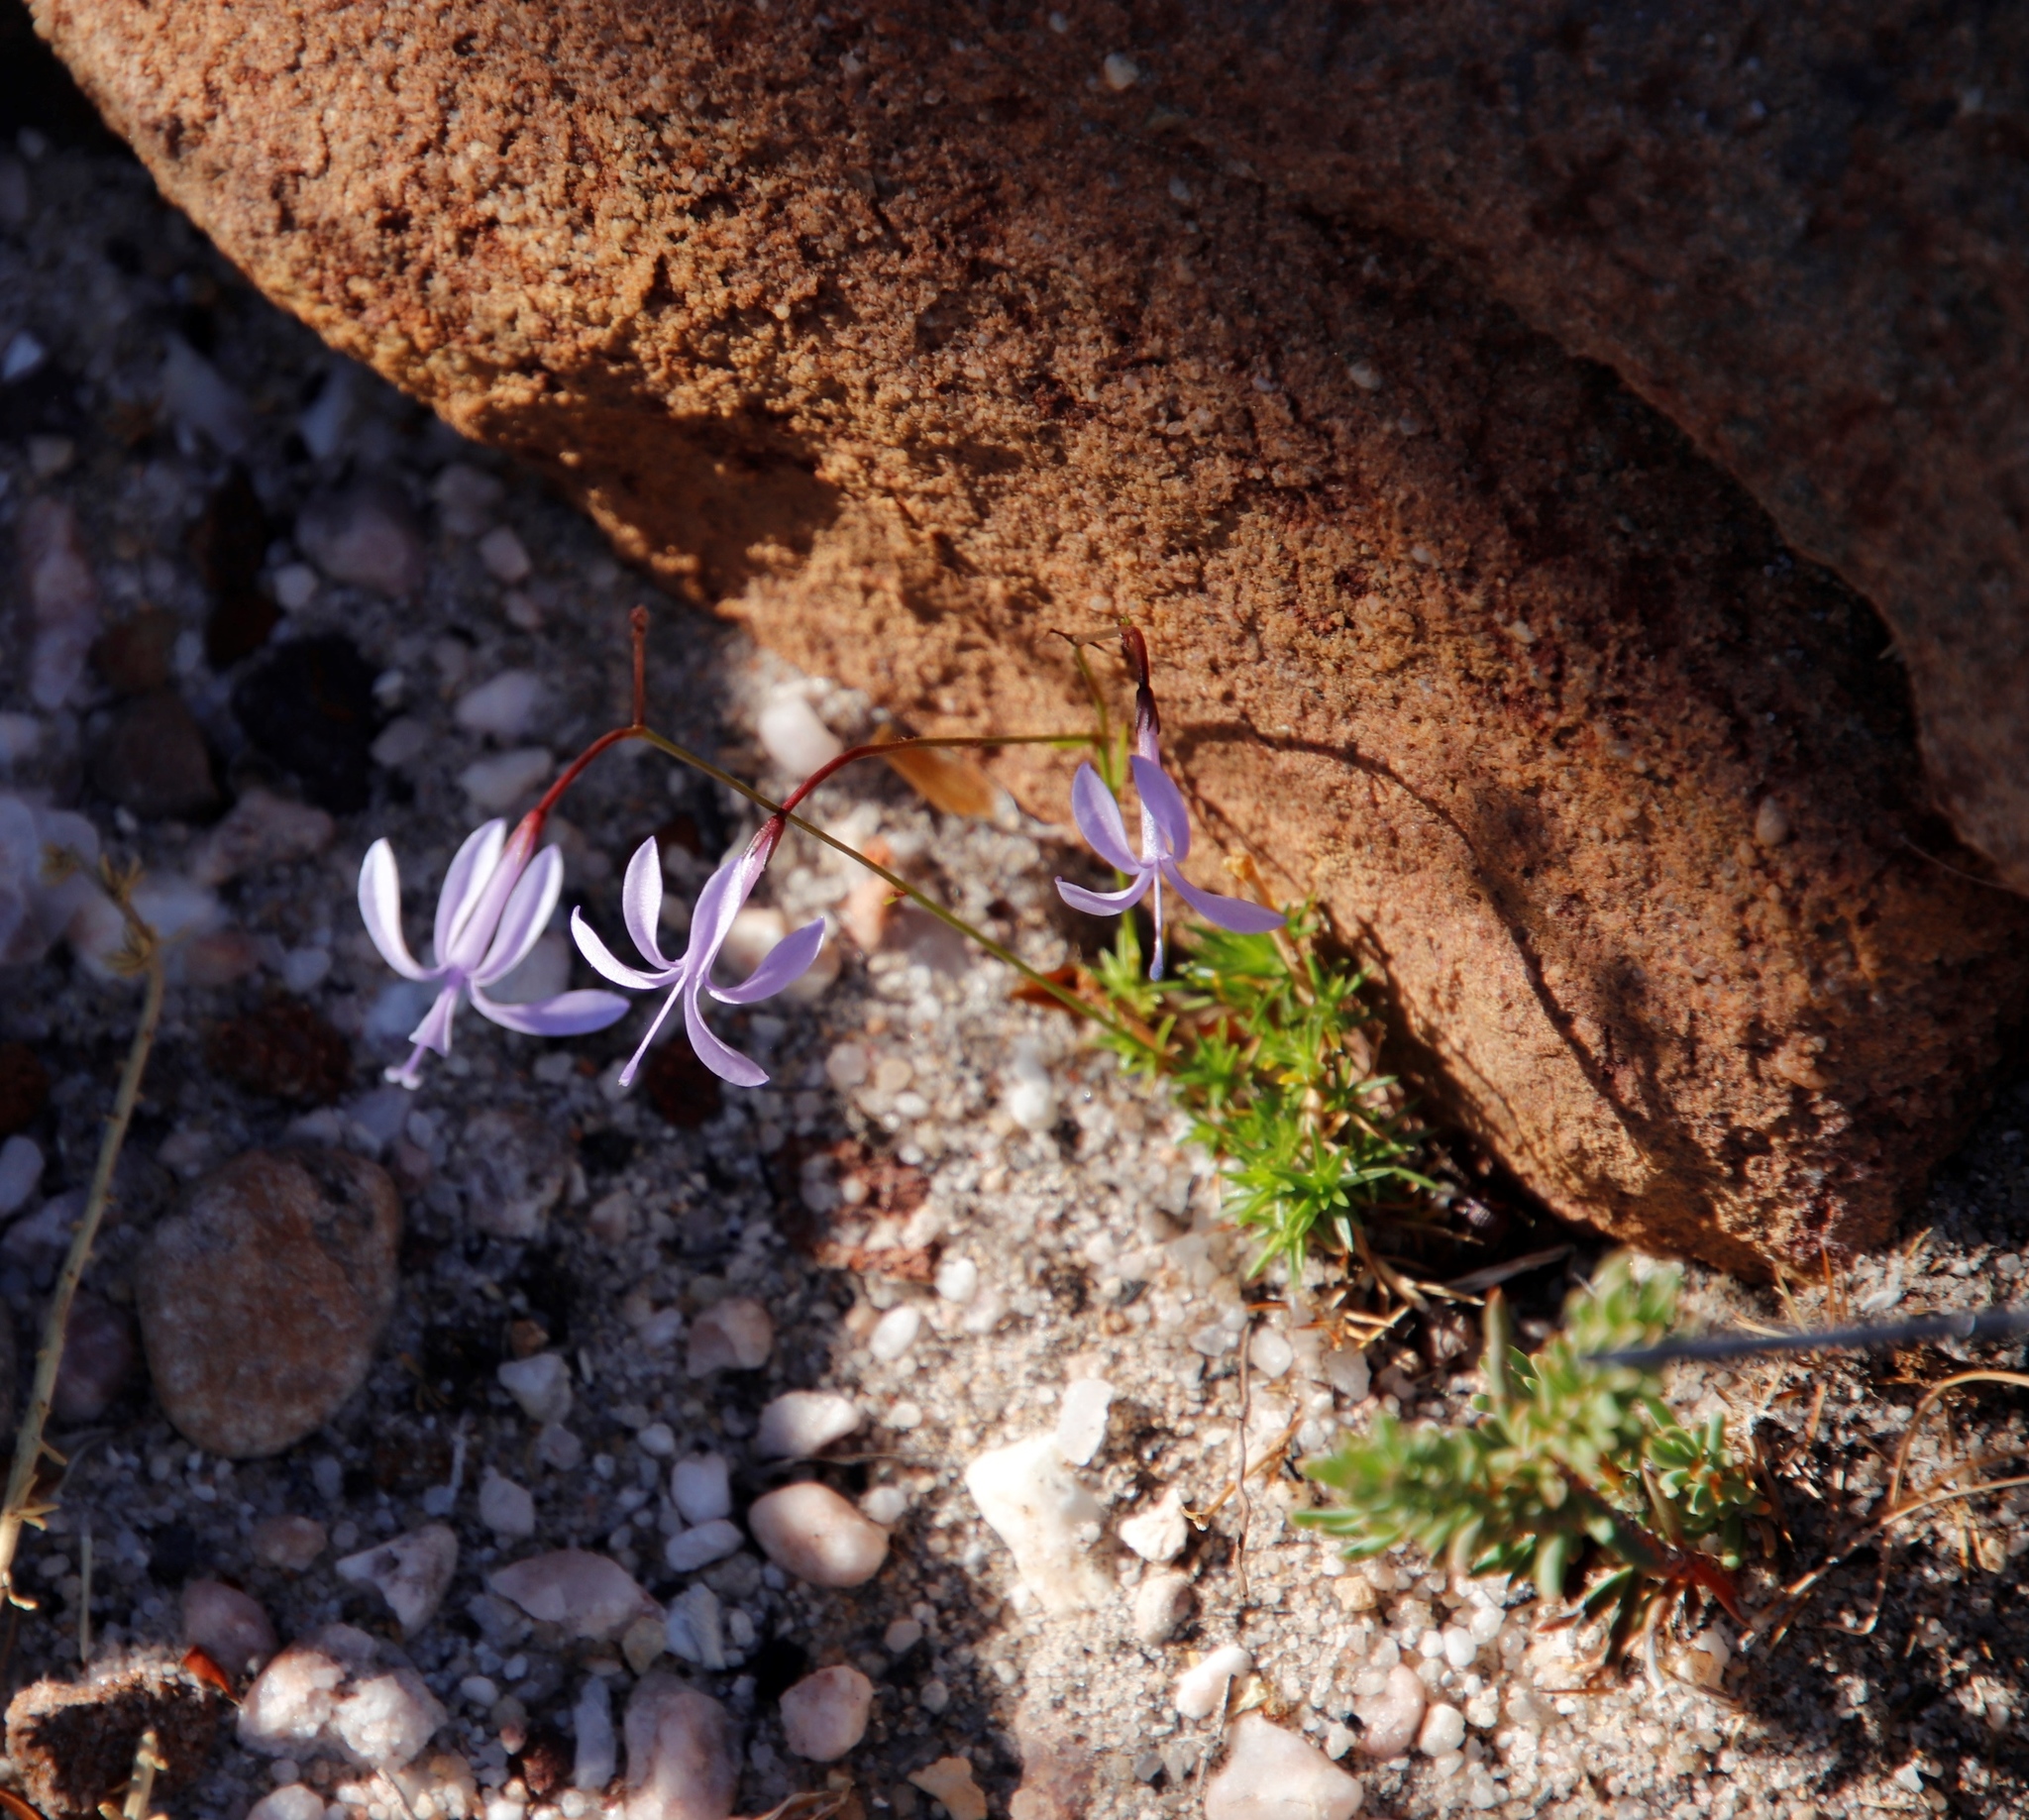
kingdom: Plantae
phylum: Tracheophyta
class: Magnoliopsida
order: Asterales
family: Campanulaceae
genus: Prismatocarpus
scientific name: Prismatocarpus diffusus
